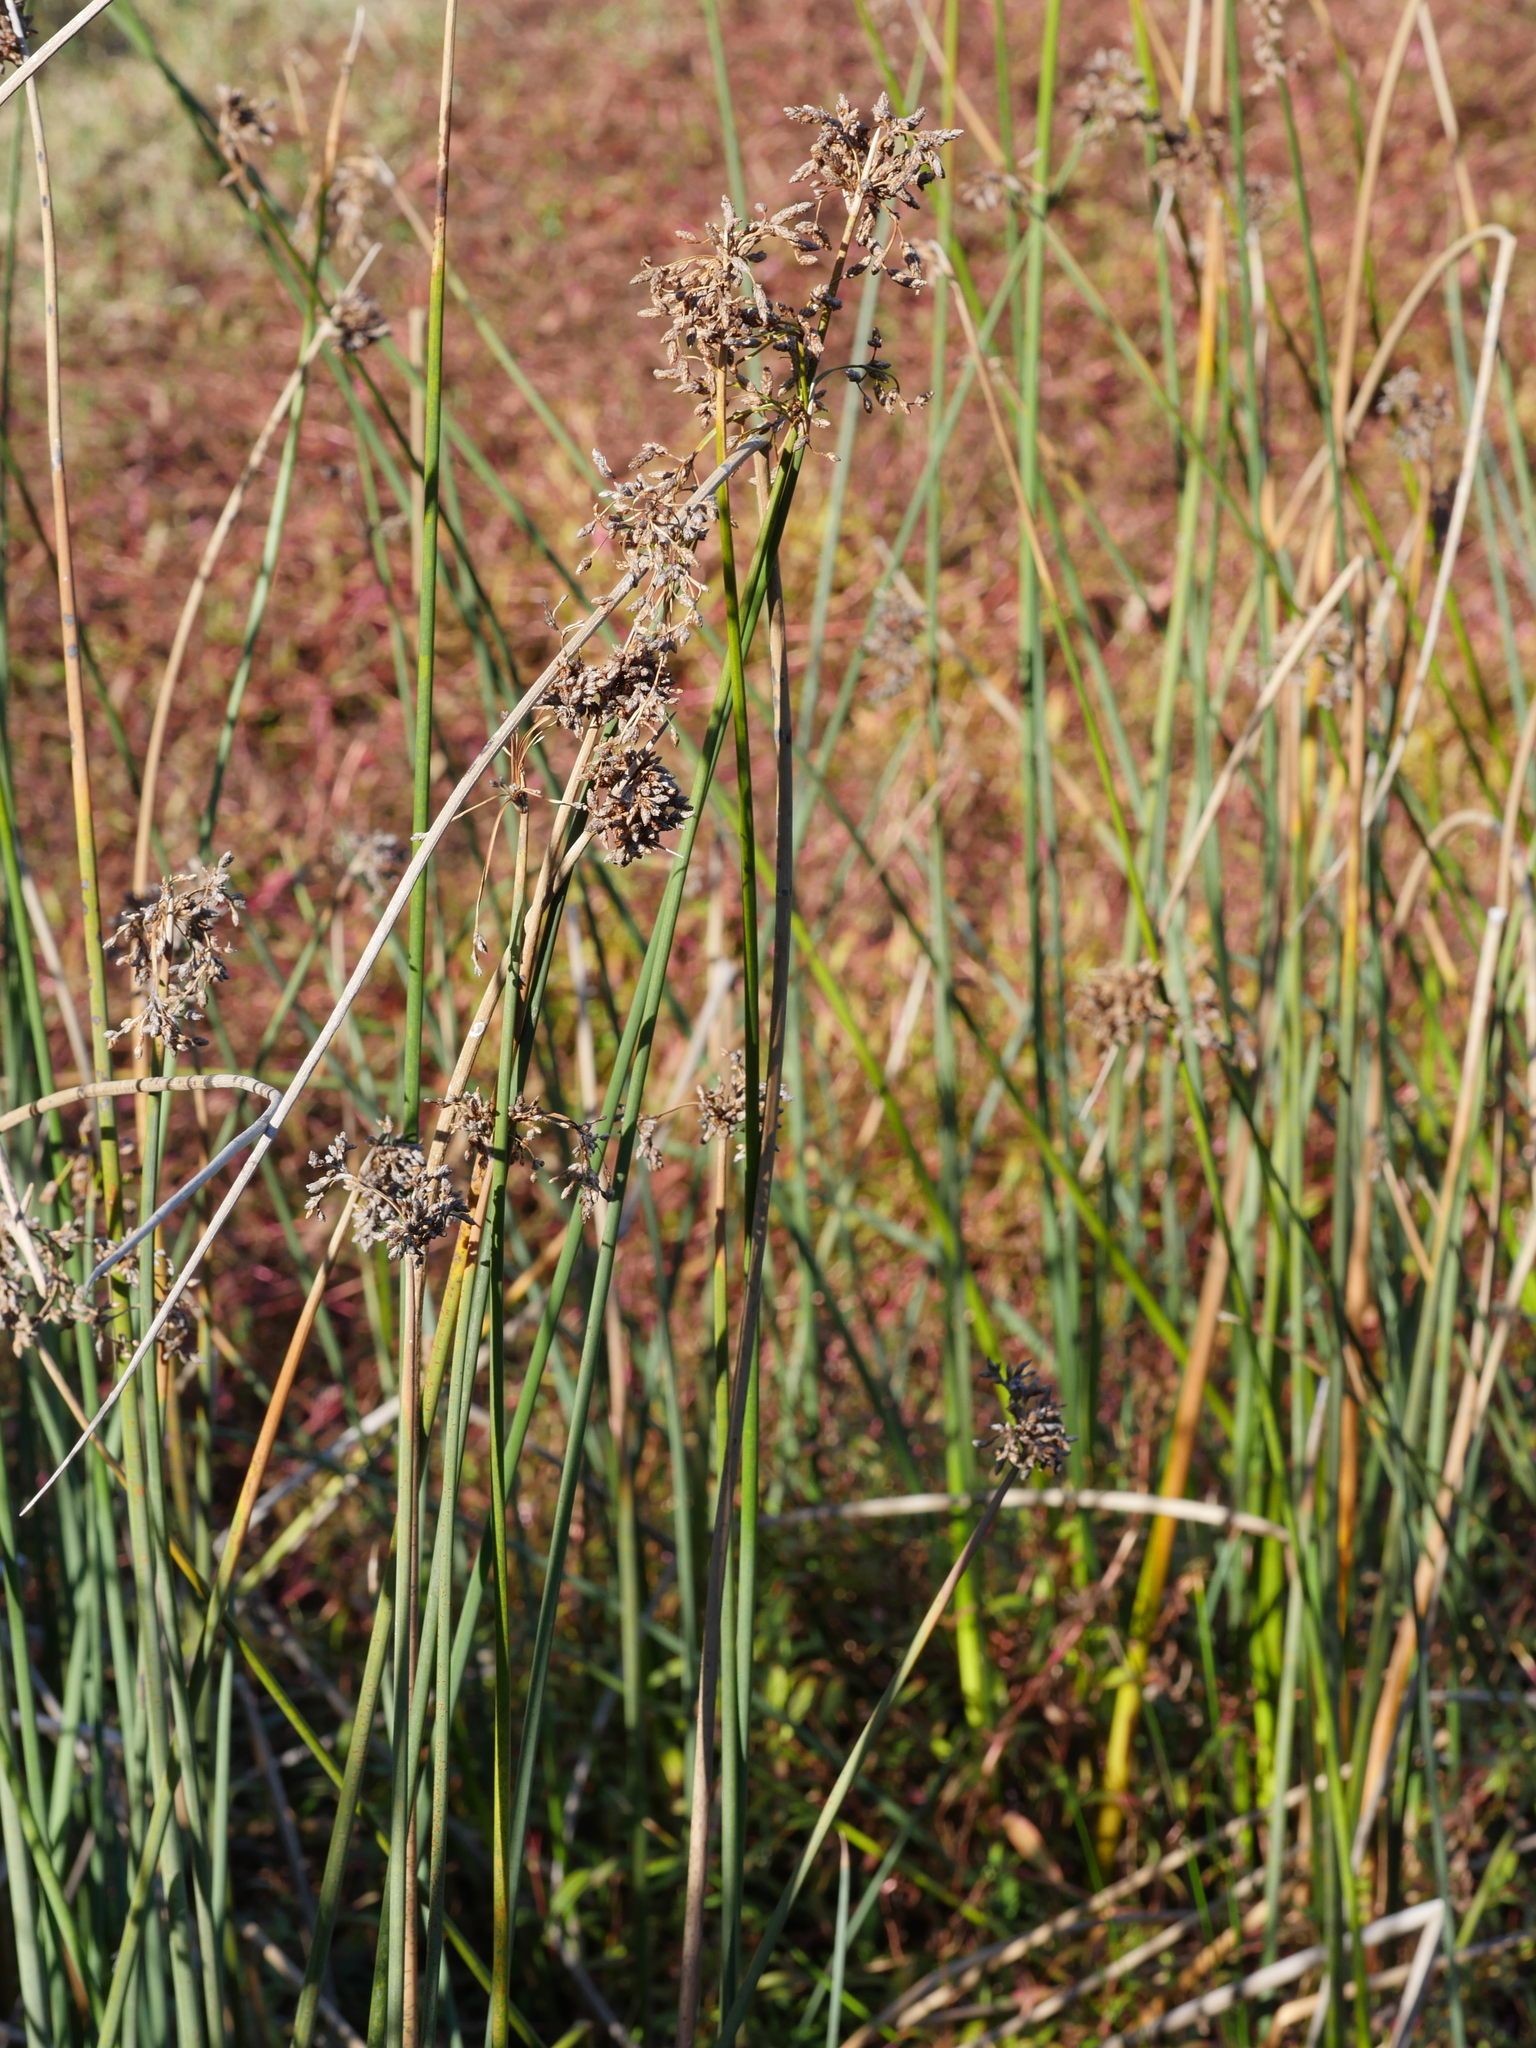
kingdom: Plantae
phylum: Tracheophyta
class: Liliopsida
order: Poales
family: Cyperaceae
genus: Schoenoplectus
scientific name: Schoenoplectus tabernaemontani
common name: Grey club-rush
